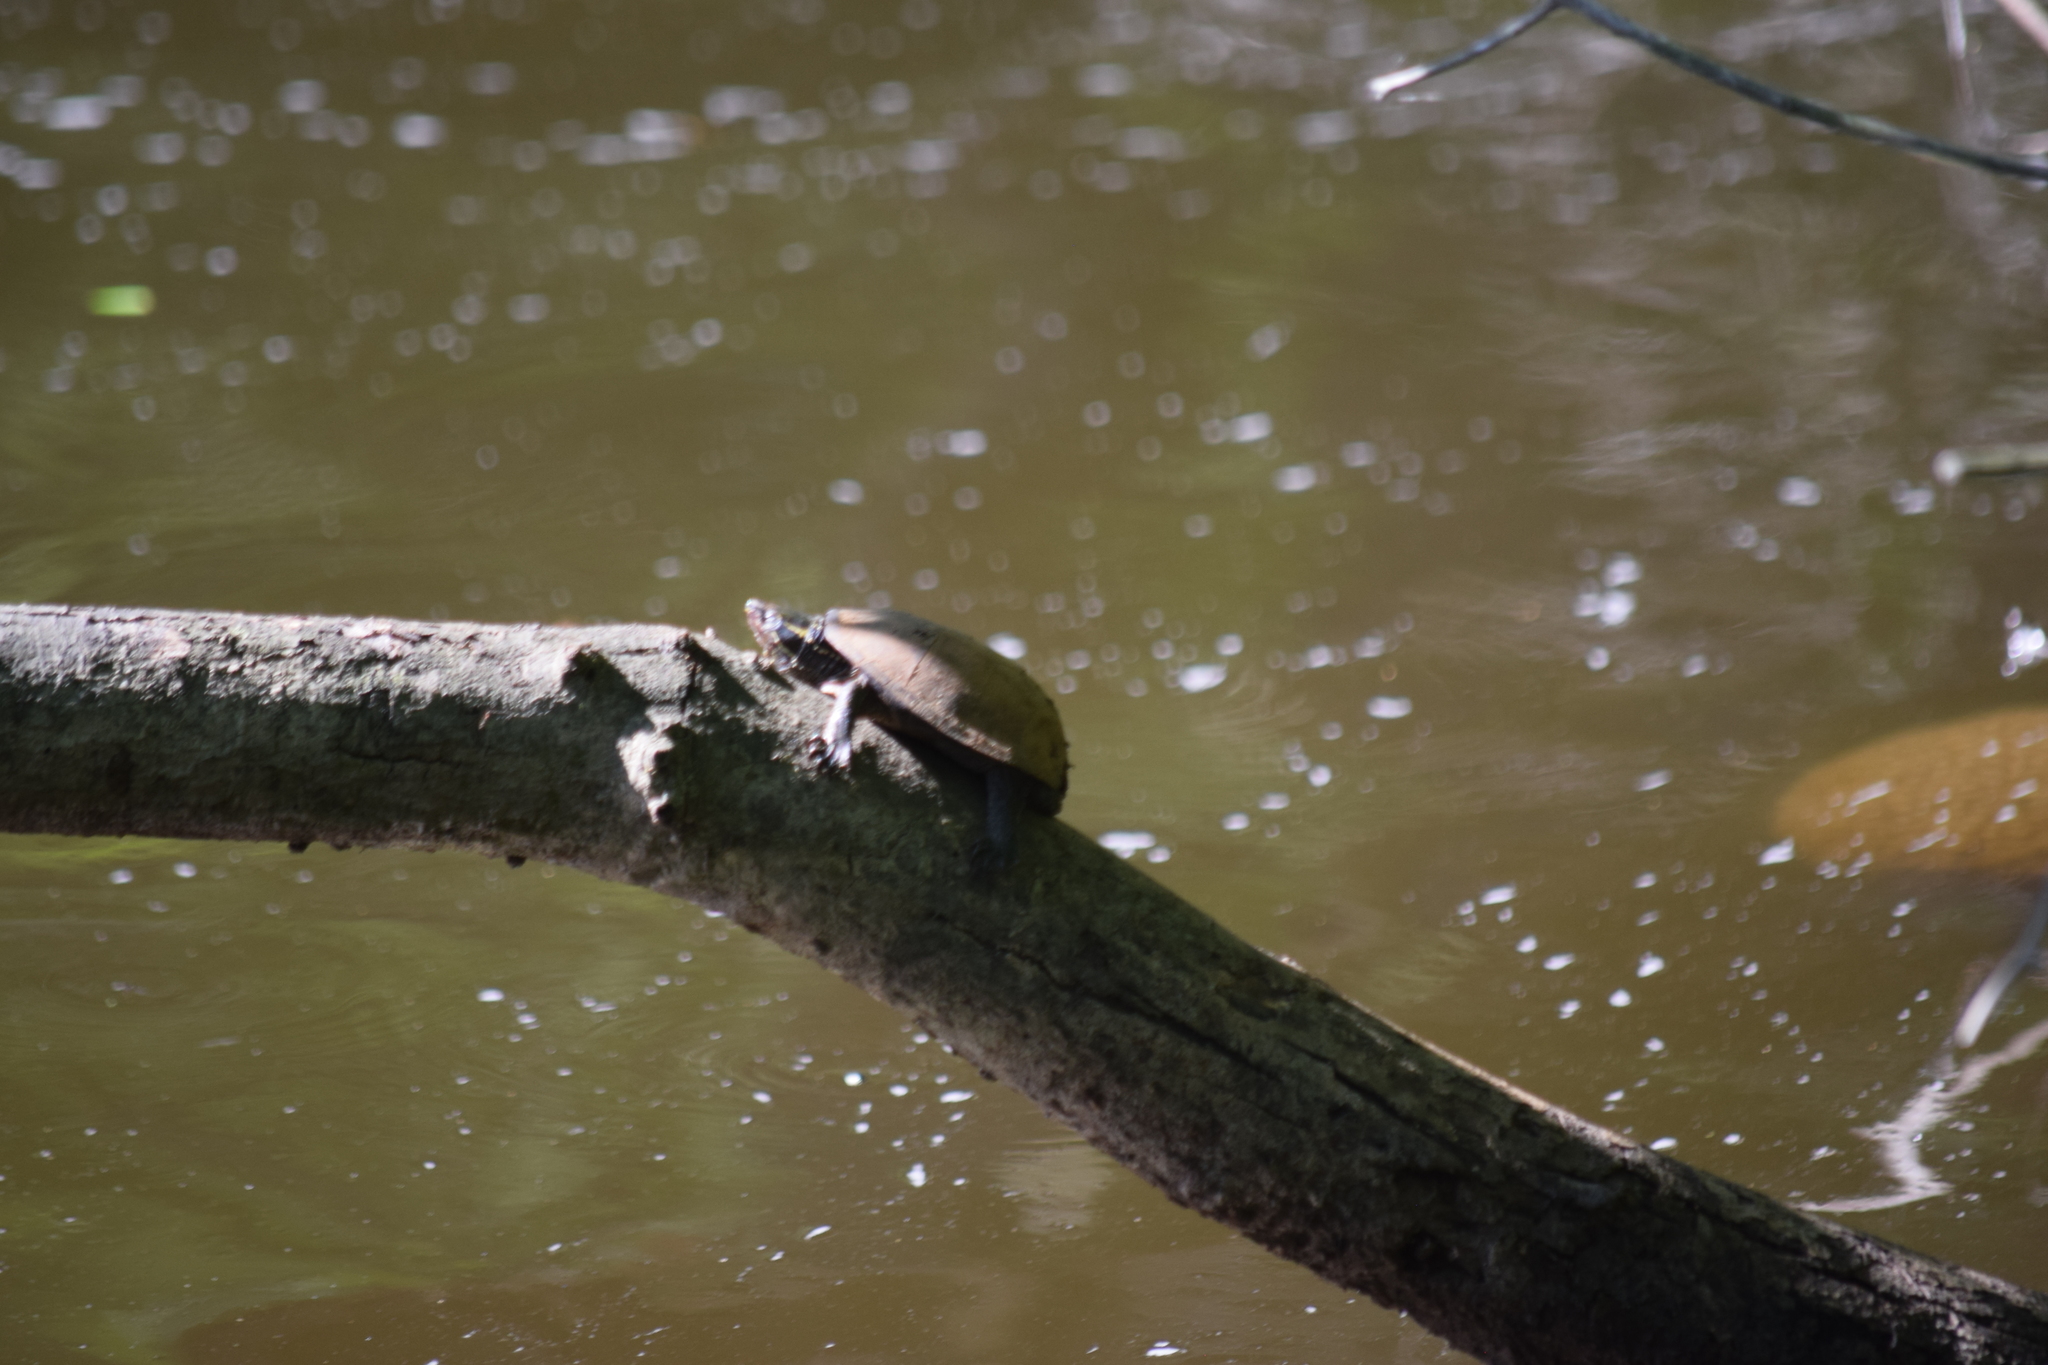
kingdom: Animalia
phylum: Chordata
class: Testudines
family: Kinosternidae
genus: Sternotherus
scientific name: Sternotherus odoratus
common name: Common musk turtle
